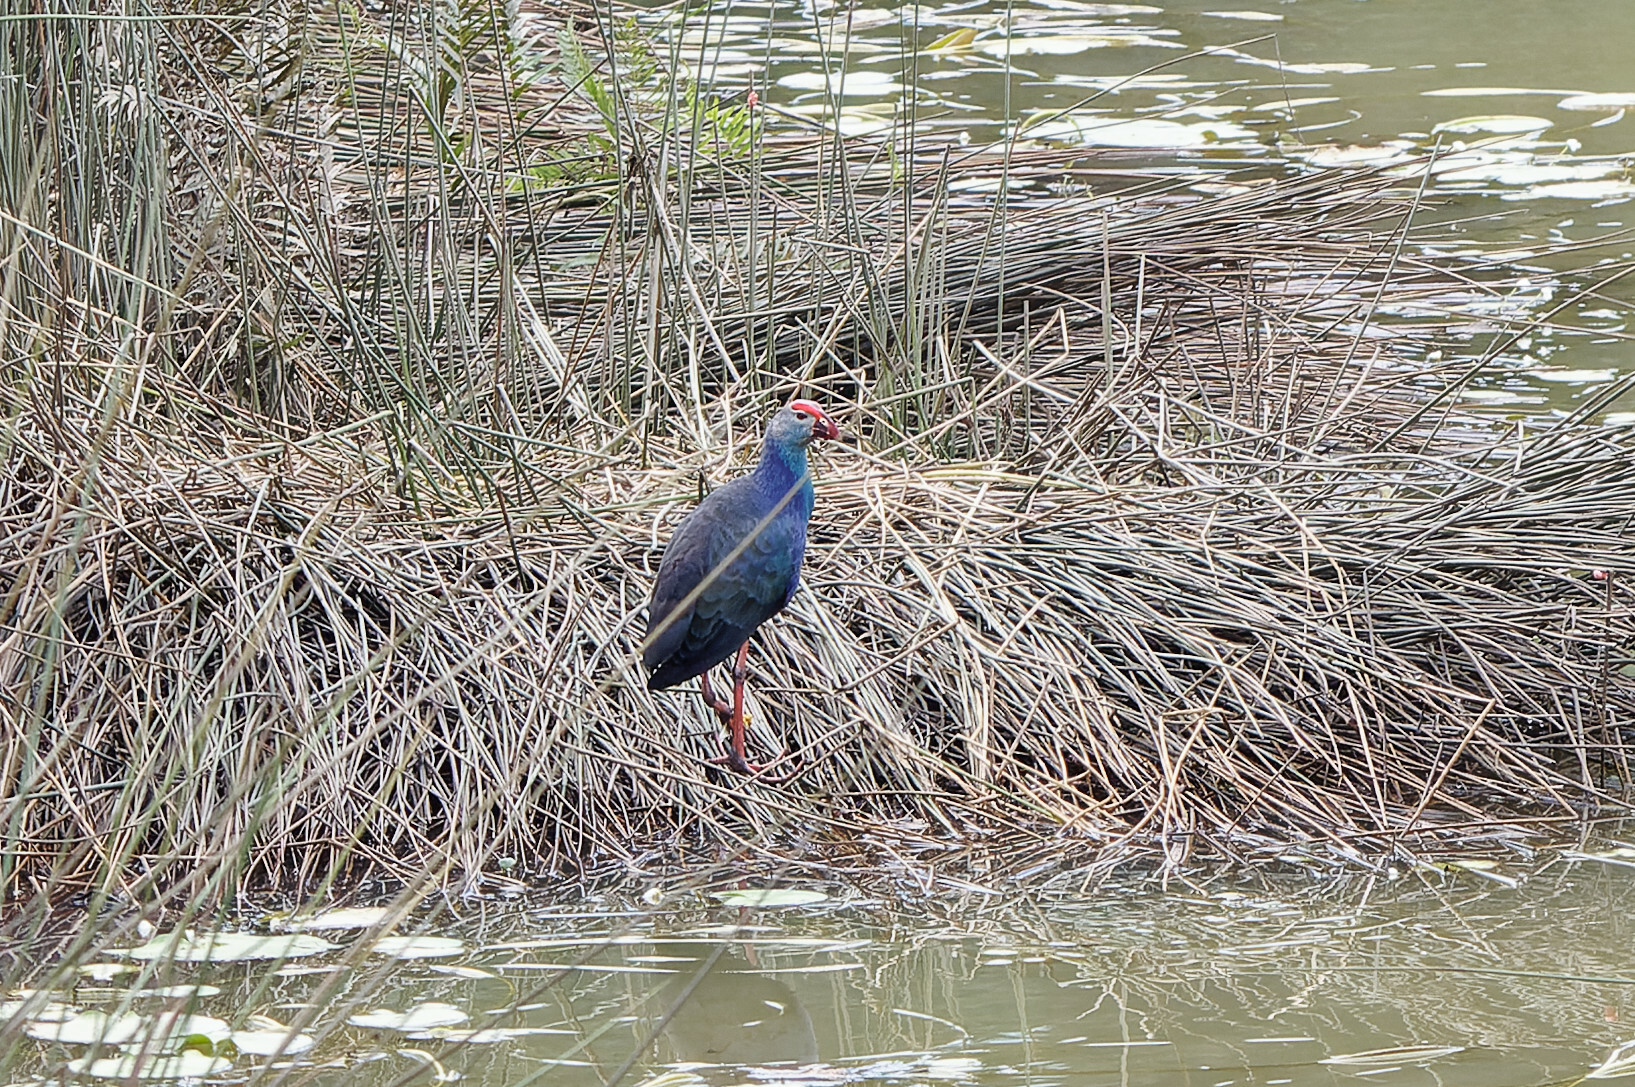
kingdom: Animalia
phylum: Chordata
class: Aves
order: Gruiformes
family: Rallidae
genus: Porphyrio
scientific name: Porphyrio porphyrio
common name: Purple swamphen
